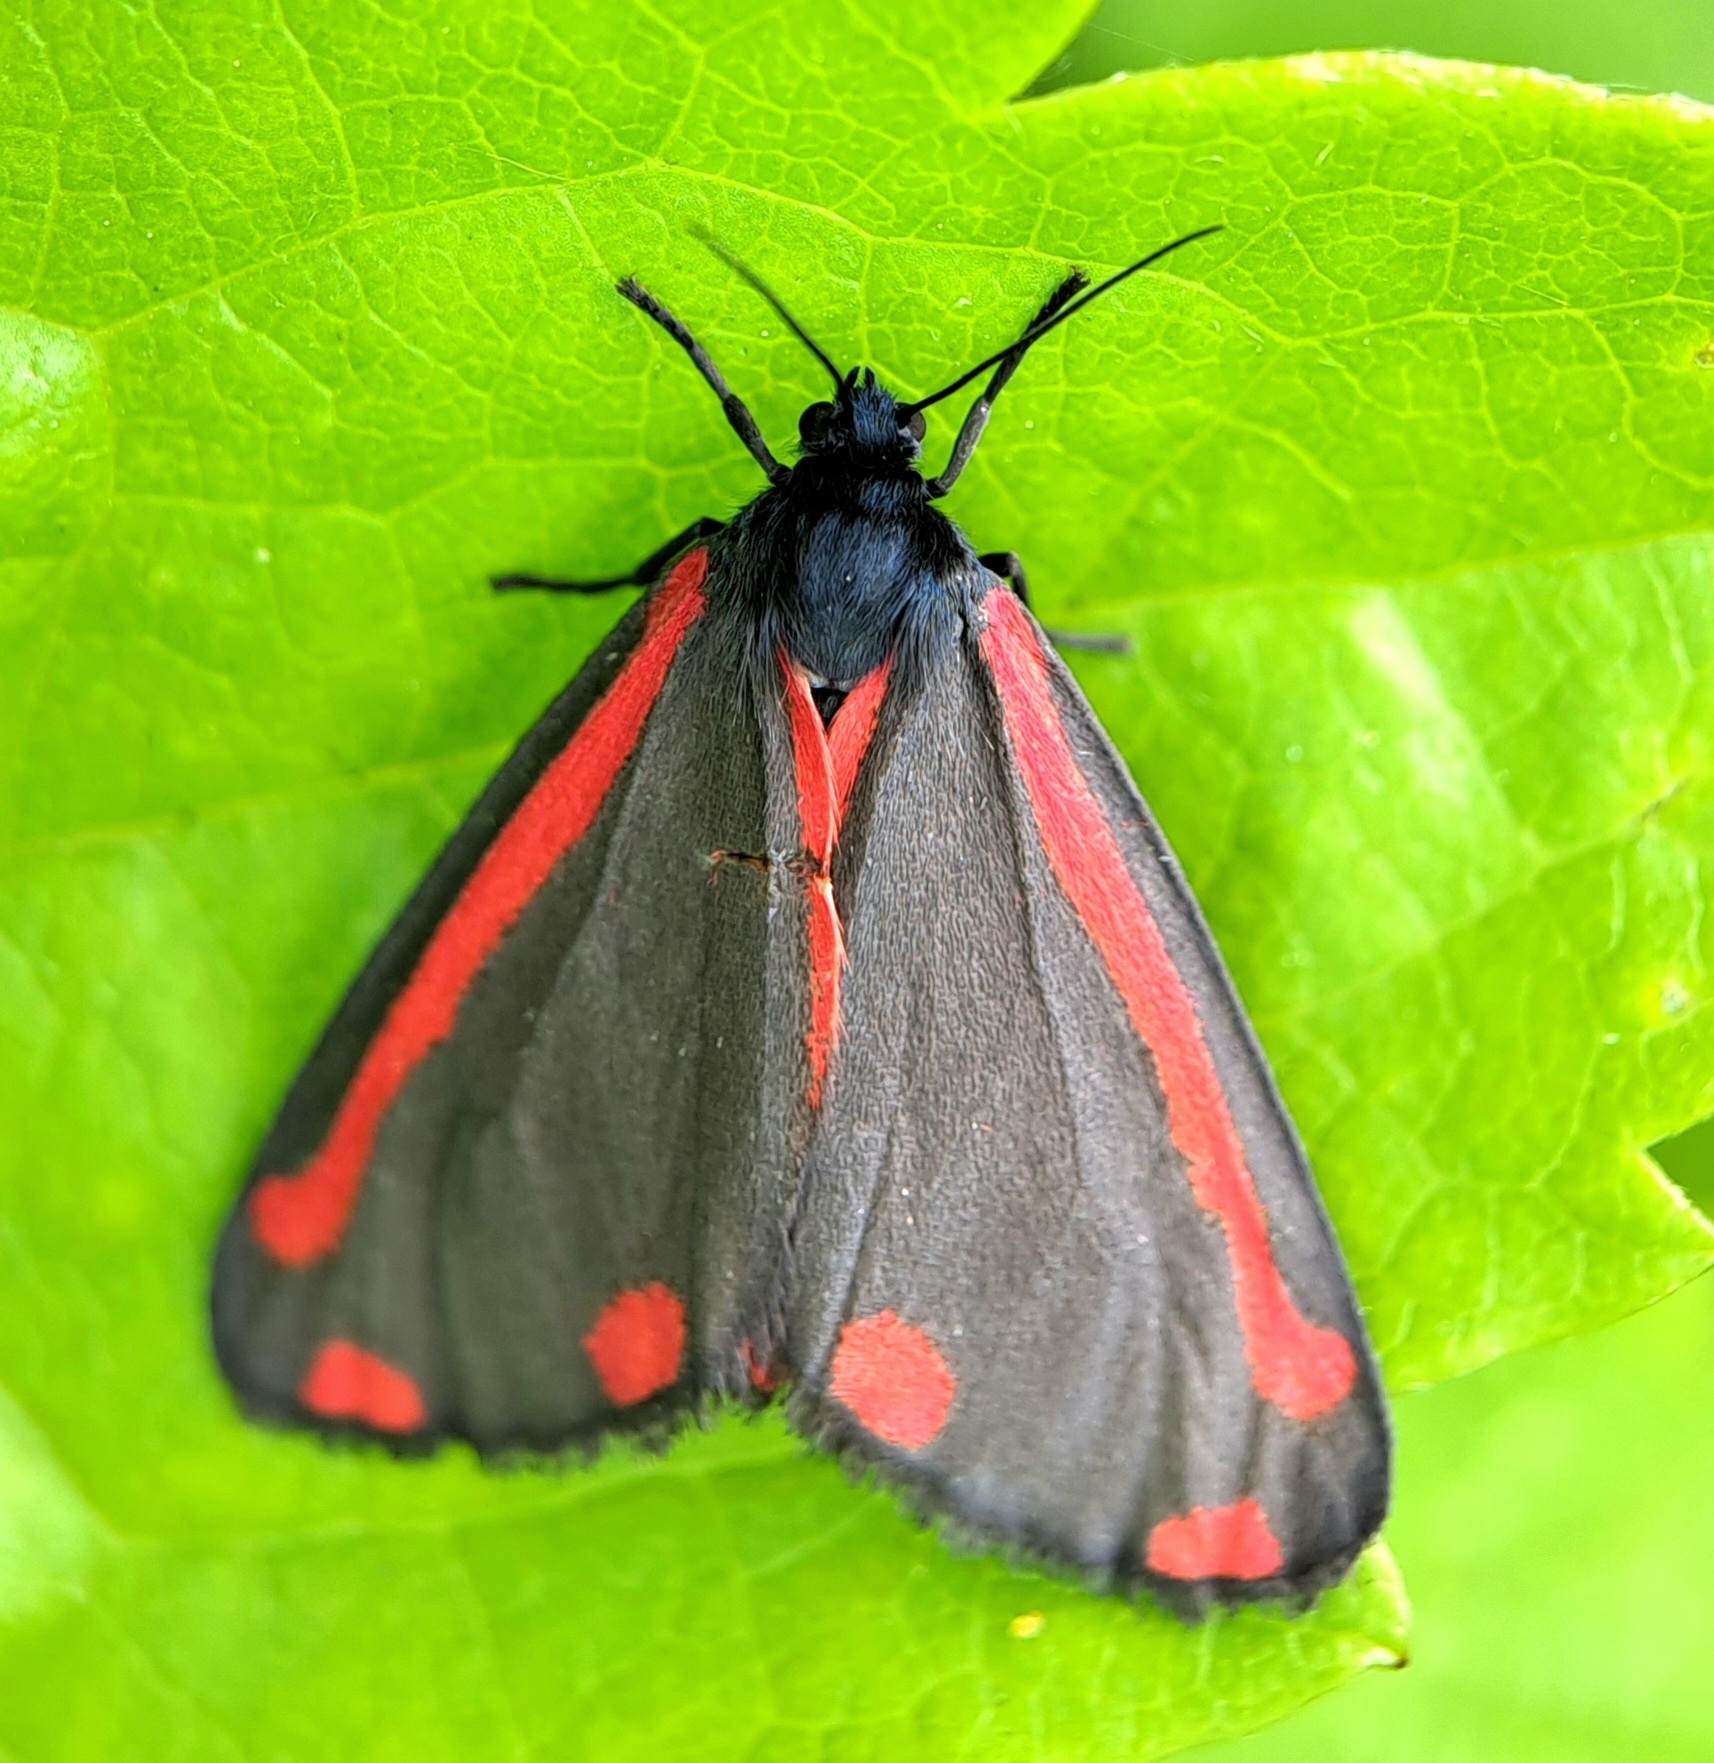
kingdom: Animalia
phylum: Arthropoda
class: Insecta
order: Lepidoptera
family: Erebidae
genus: Tyria
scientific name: Tyria jacobaeae
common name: Cinnabar
